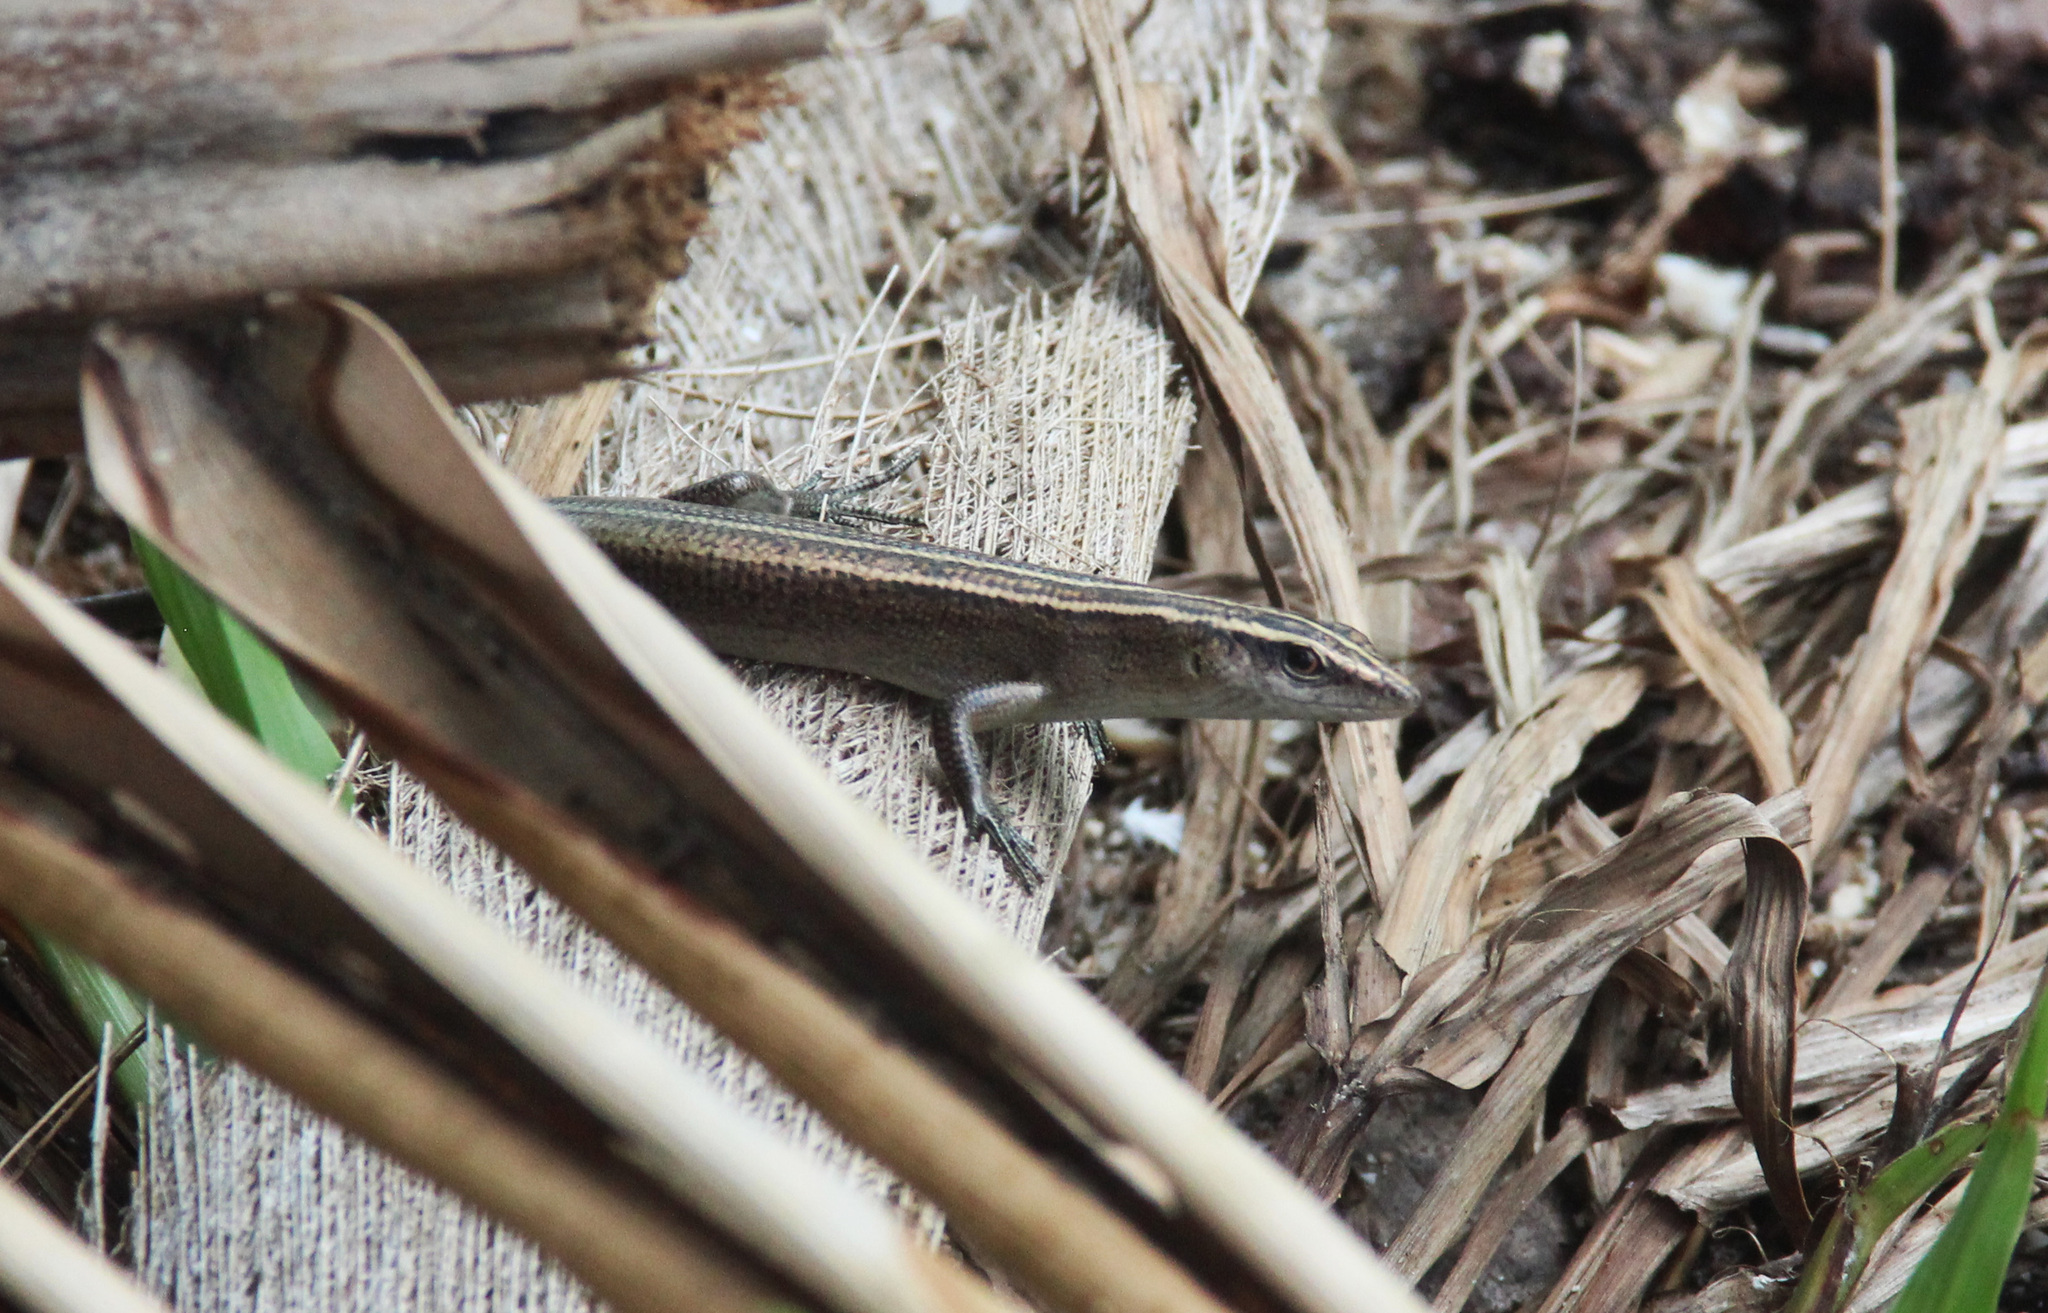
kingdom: Animalia
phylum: Chordata
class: Squamata
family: Scincidae
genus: Emoia
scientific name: Emoia impar
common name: Azure-tailed skink
